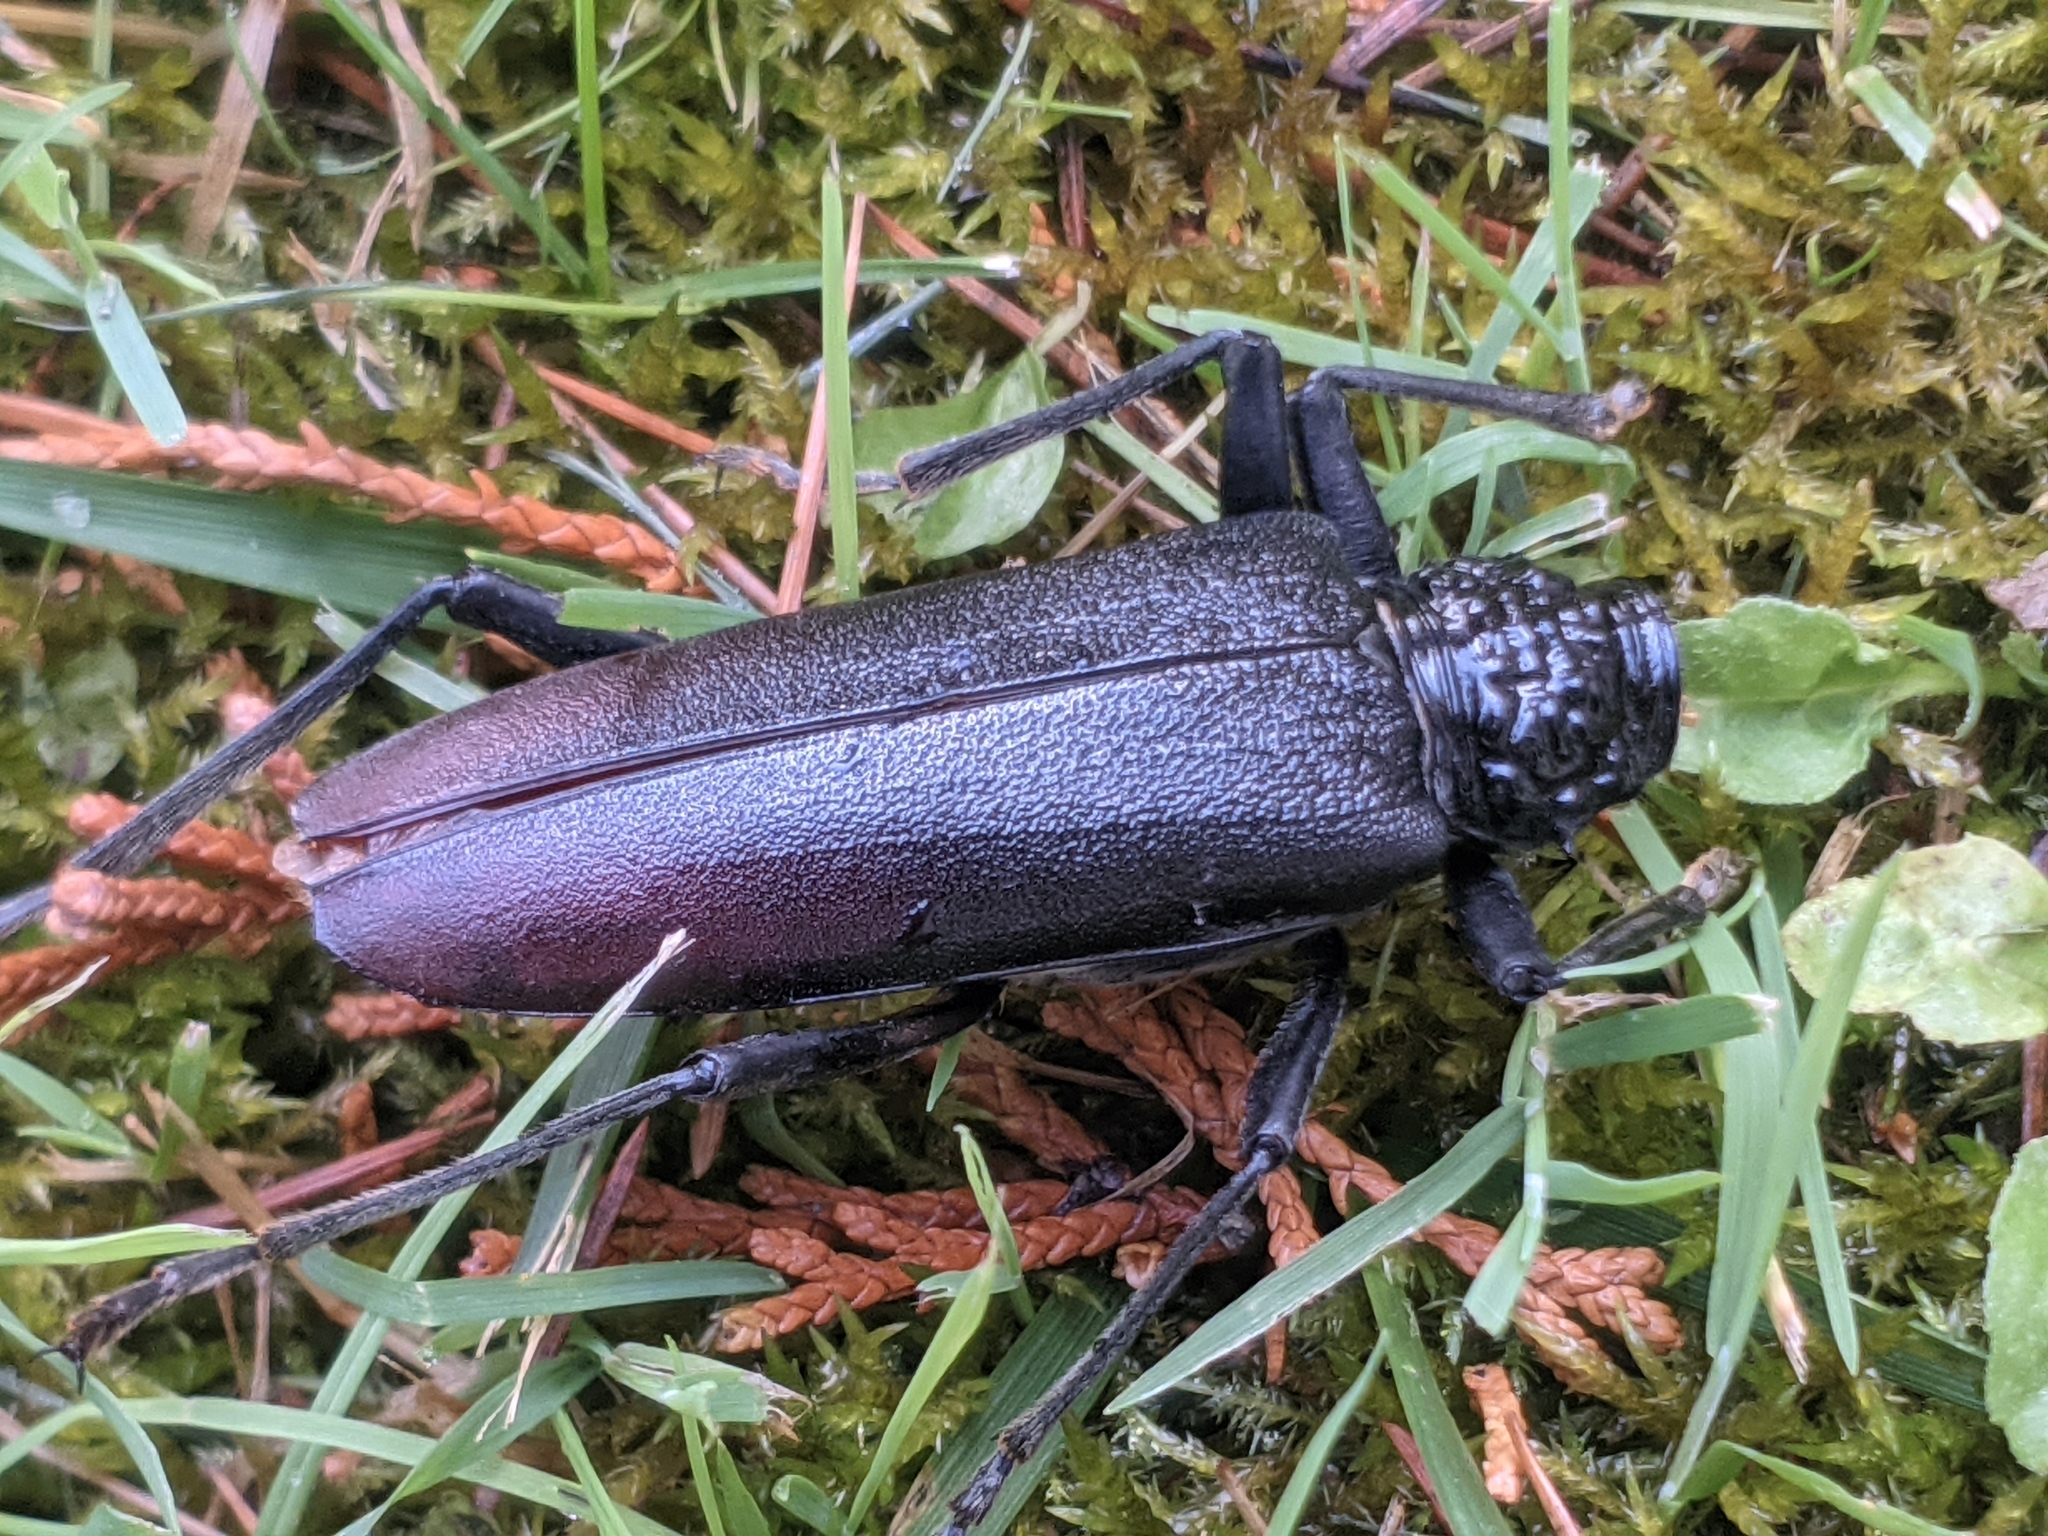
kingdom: Animalia
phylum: Arthropoda
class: Insecta
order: Coleoptera
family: Cerambycidae
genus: Cerambyx
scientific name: Cerambyx cerdo
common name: Cerambyx longicorn
